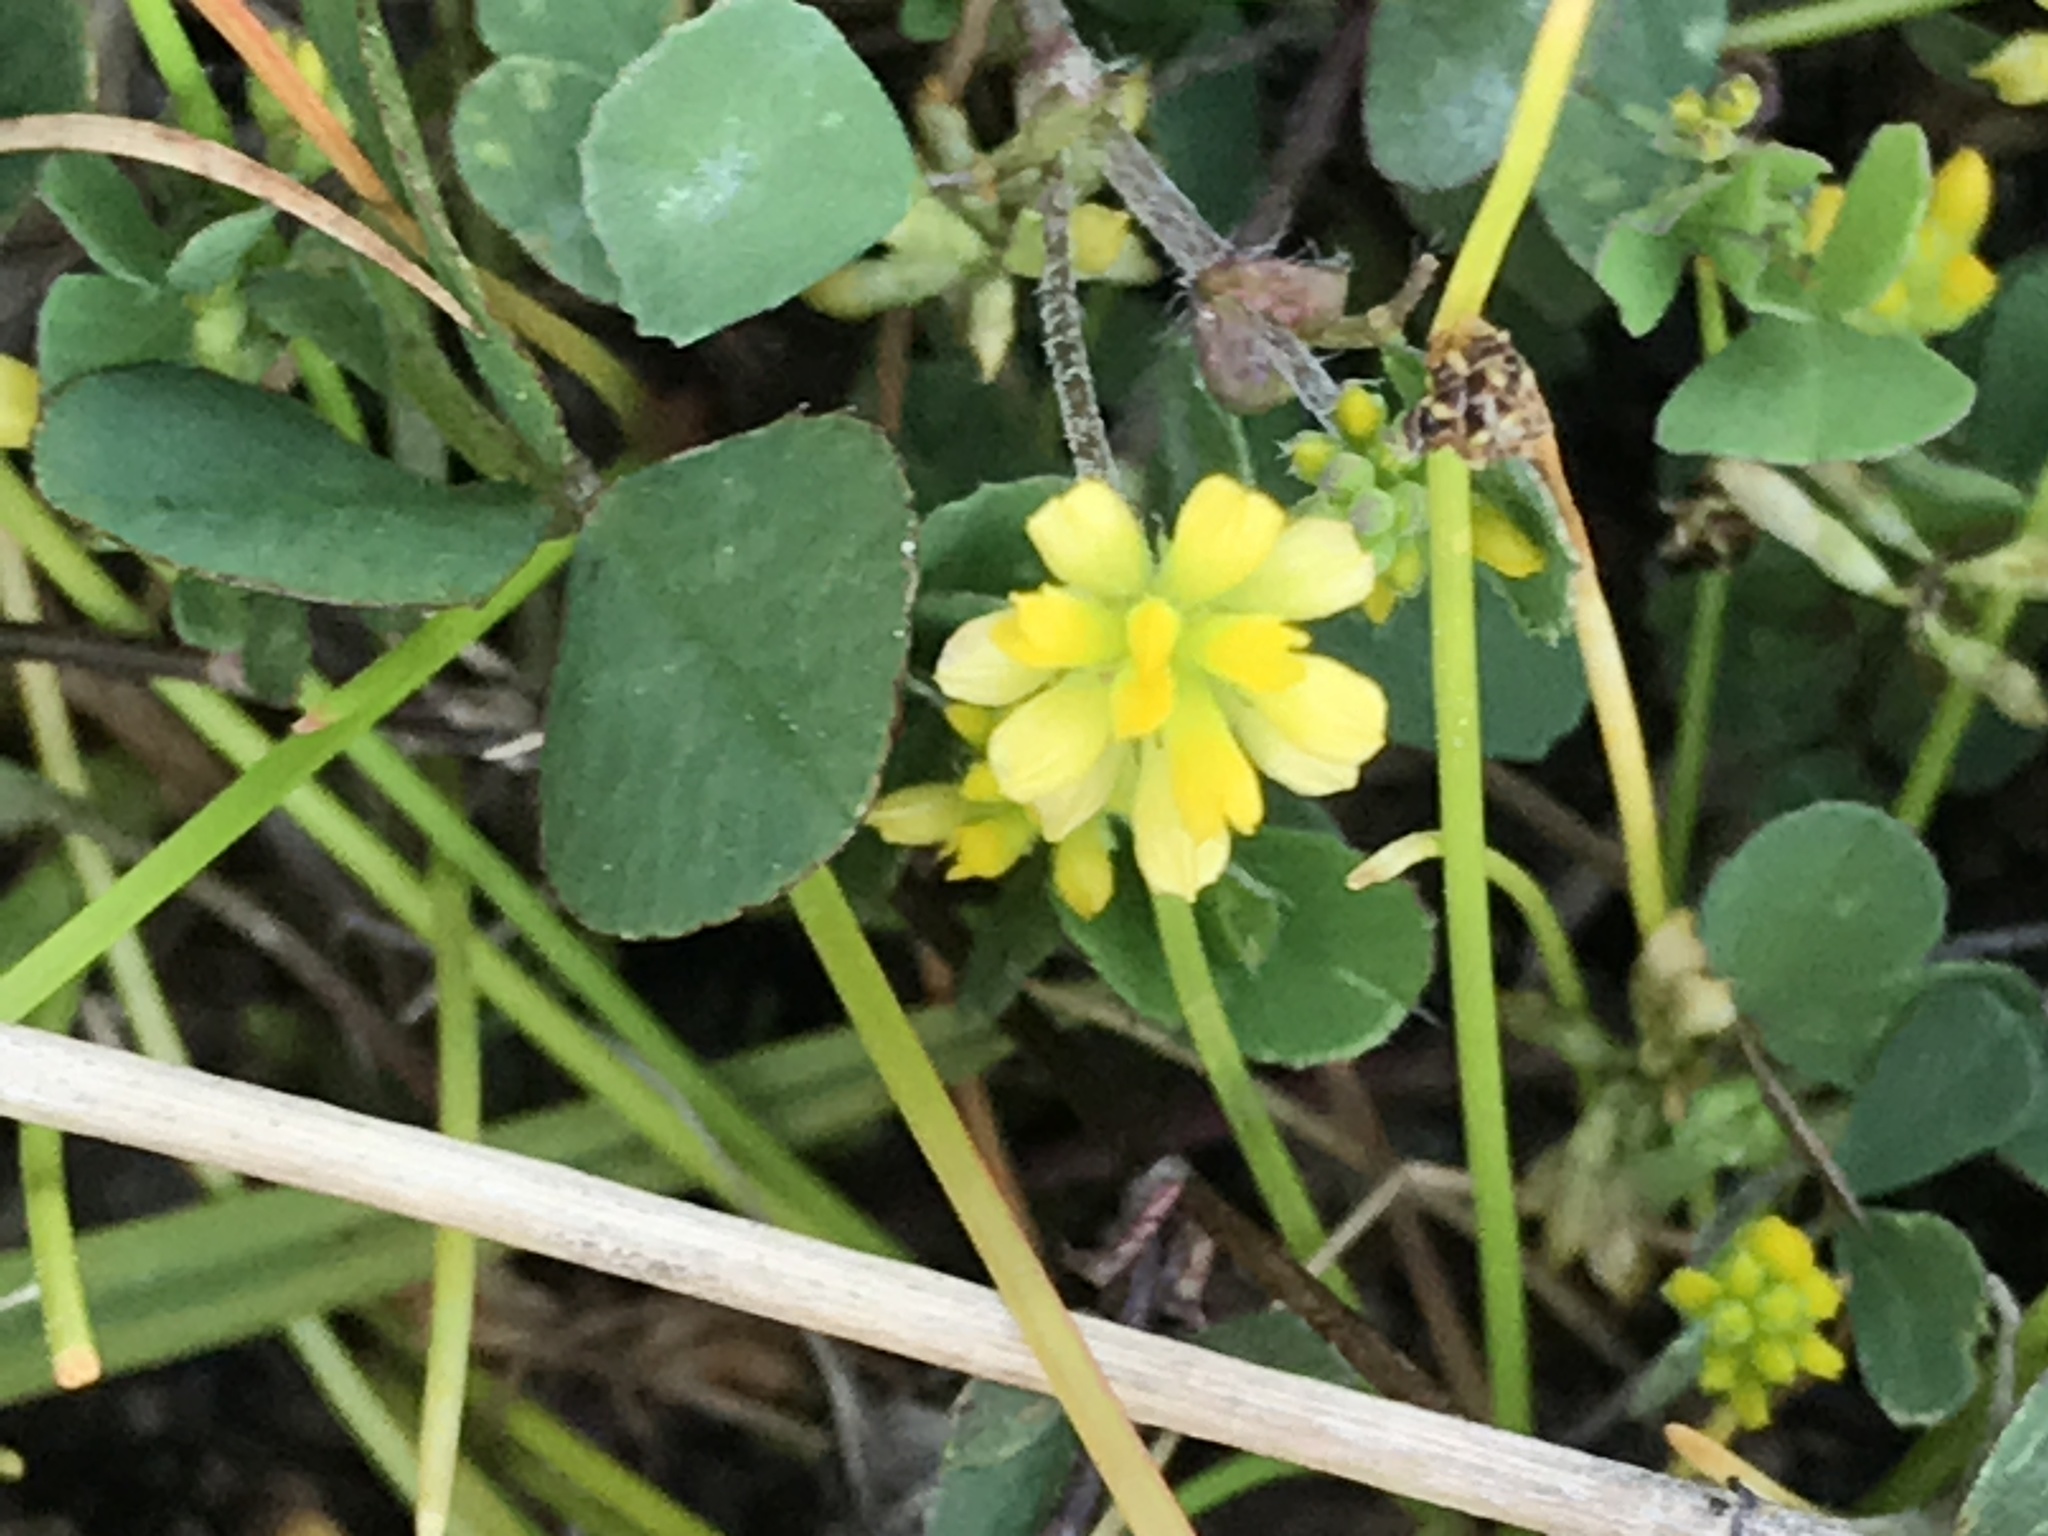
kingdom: Plantae
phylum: Tracheophyta
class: Magnoliopsida
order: Fabales
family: Fabaceae
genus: Trifolium
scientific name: Trifolium dubium
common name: Suckling clover
